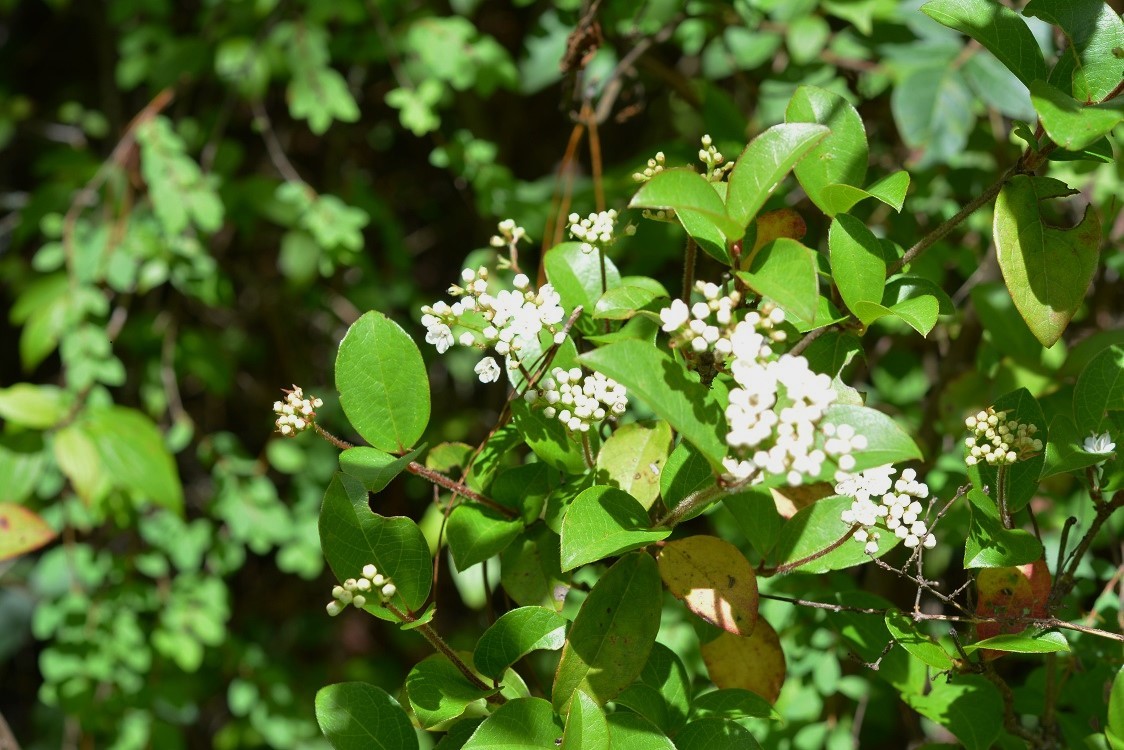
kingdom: Plantae
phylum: Tracheophyta
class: Magnoliopsida
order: Dipsacales
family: Viburnaceae
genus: Viburnum
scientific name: Viburnum lautum
